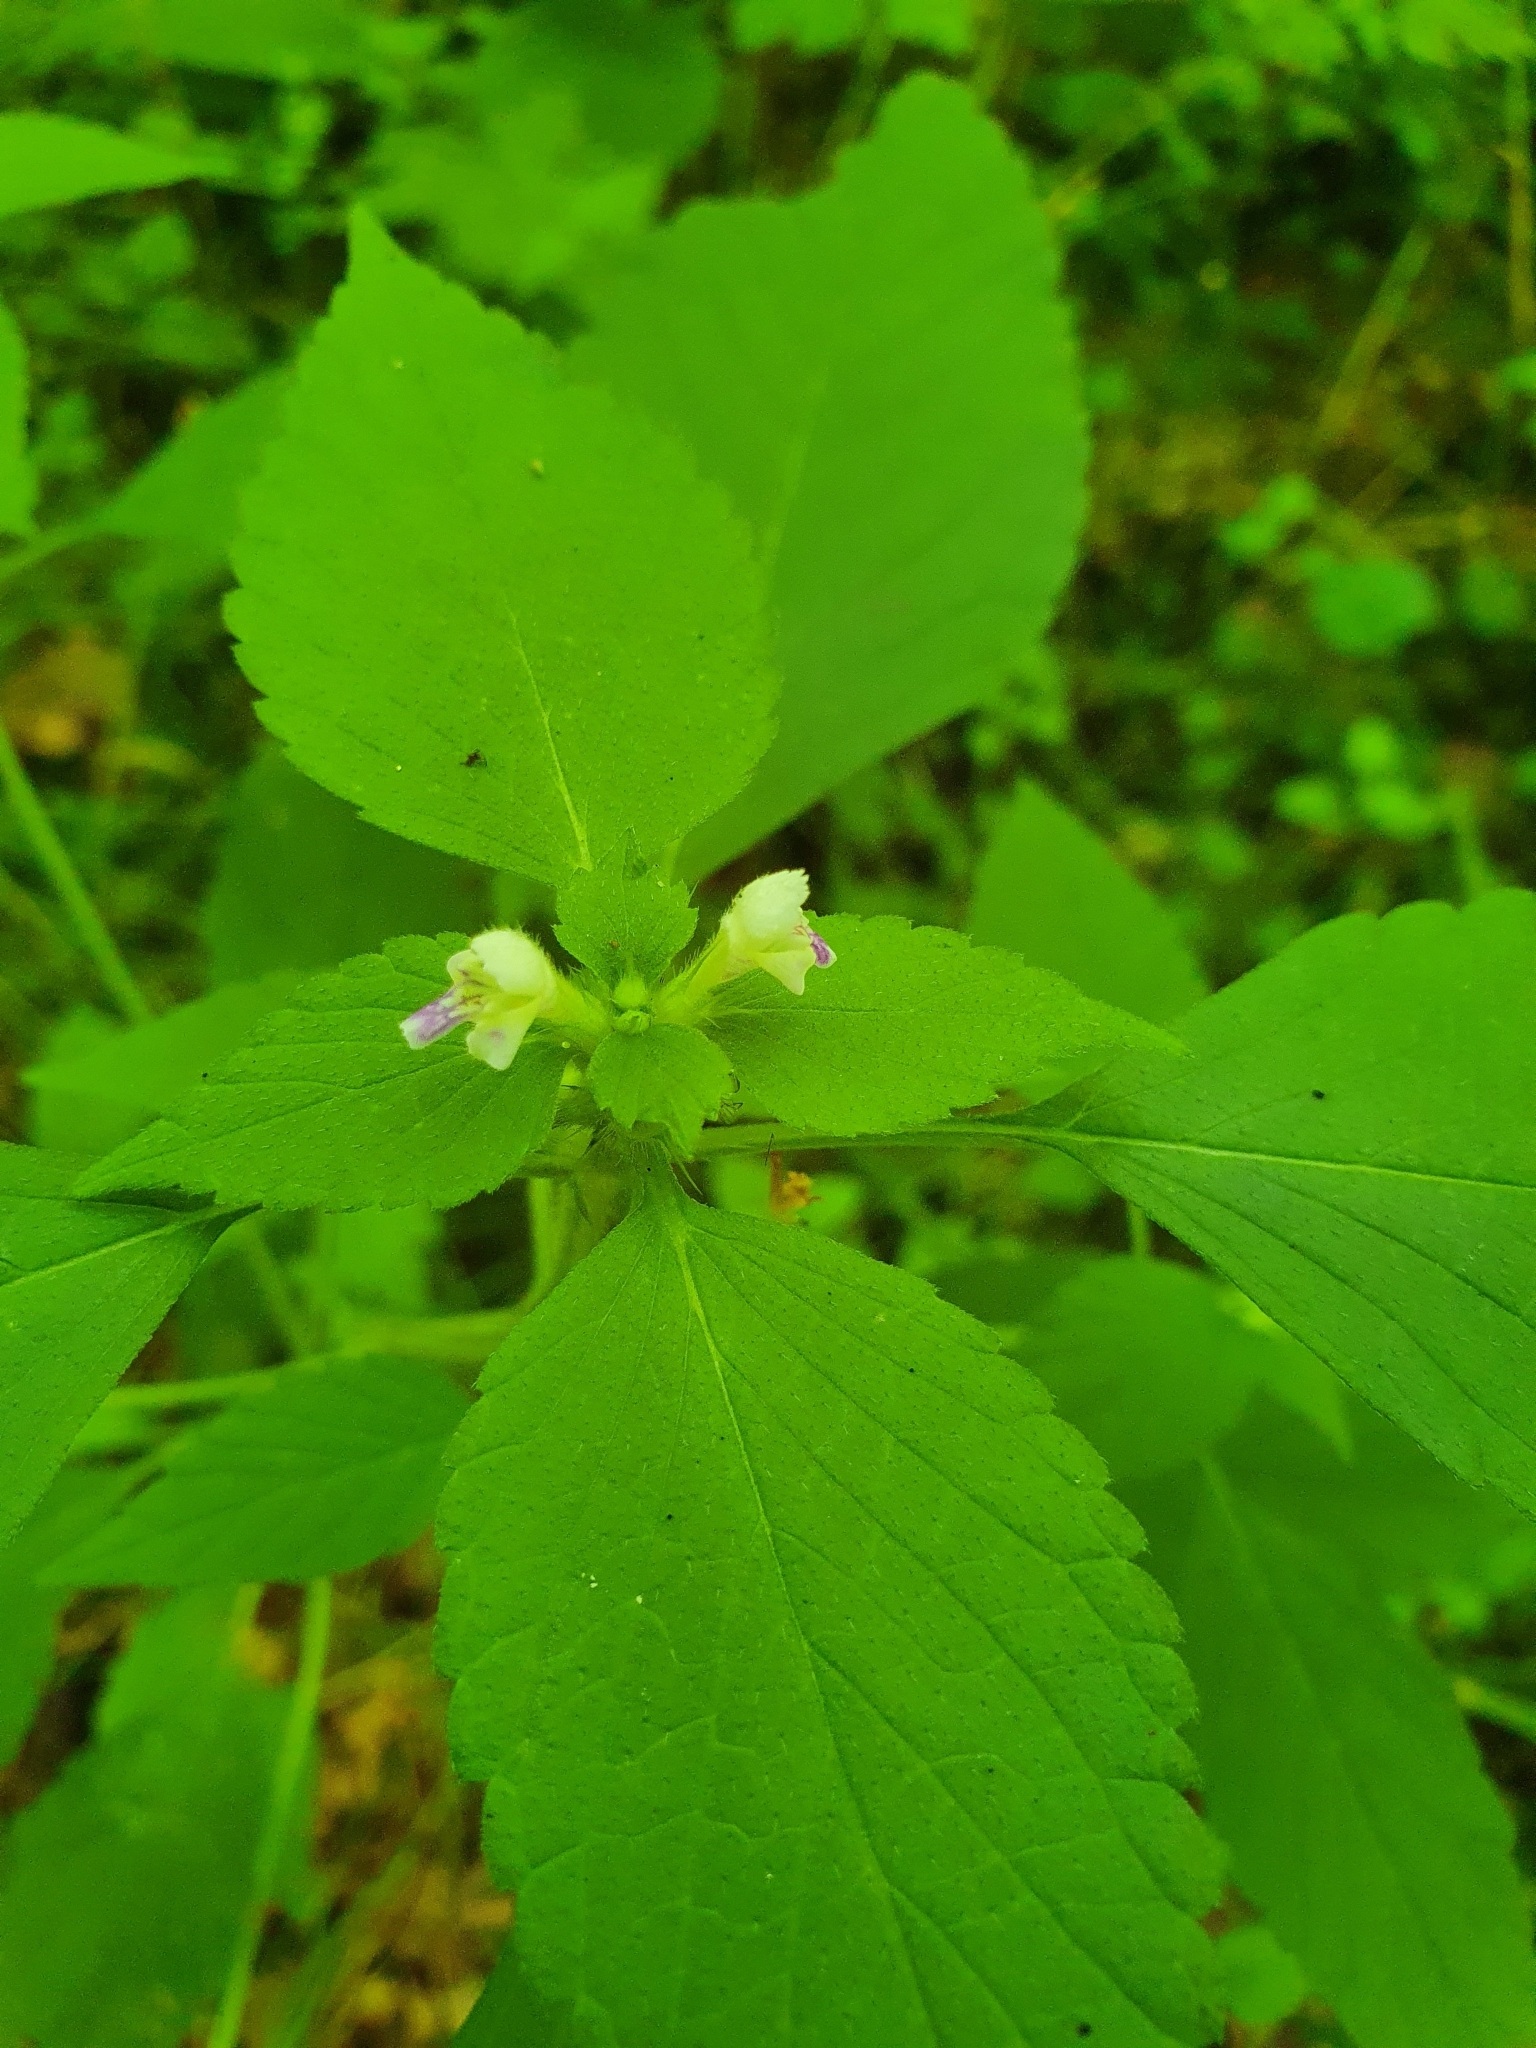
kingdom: Plantae
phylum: Tracheophyta
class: Magnoliopsida
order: Lamiales
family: Lamiaceae
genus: Galeopsis
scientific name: Galeopsis bifida
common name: Bifid hemp-nettle
